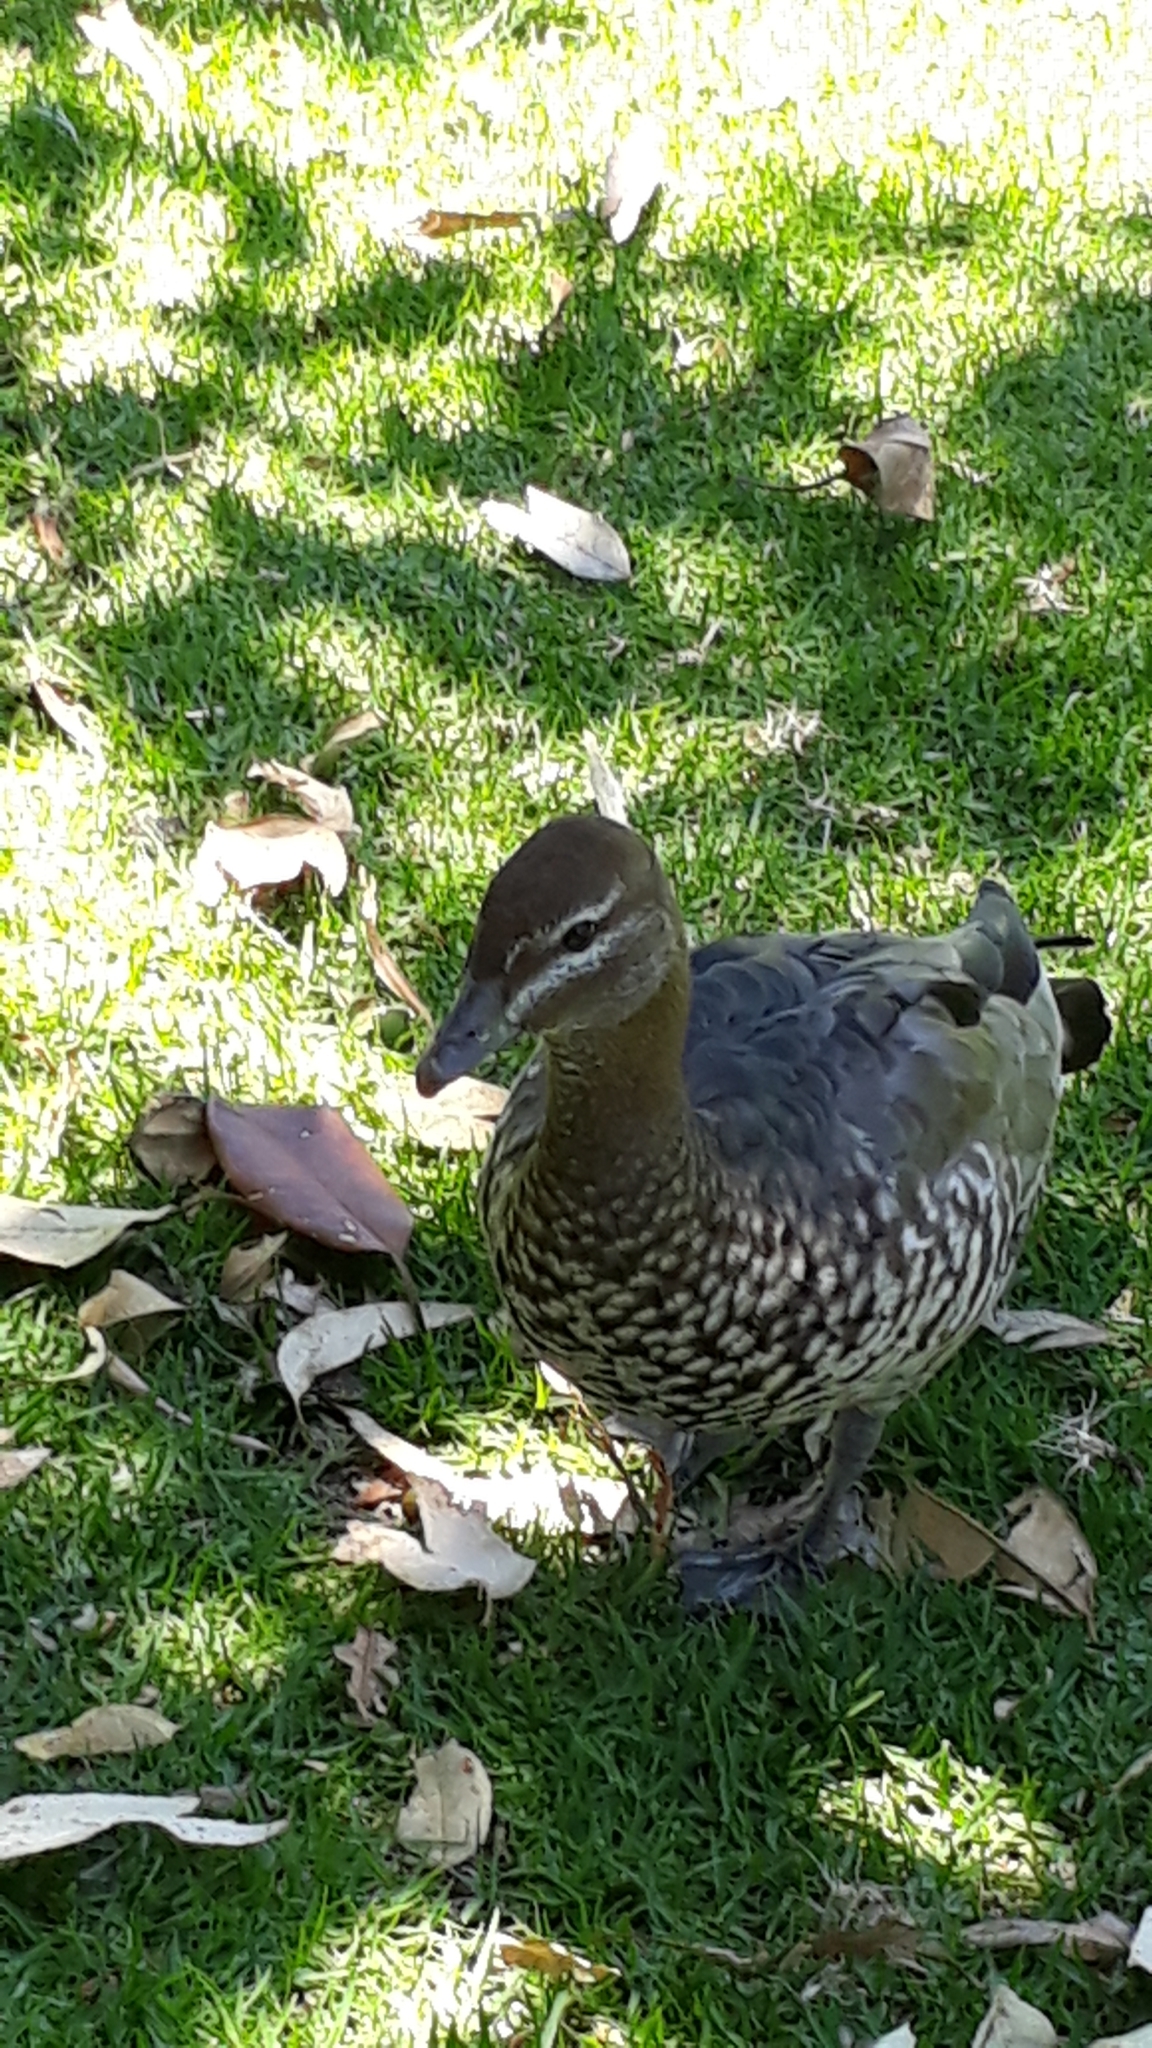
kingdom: Animalia
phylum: Chordata
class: Aves
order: Anseriformes
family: Anatidae
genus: Chenonetta
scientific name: Chenonetta jubata
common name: Maned duck
